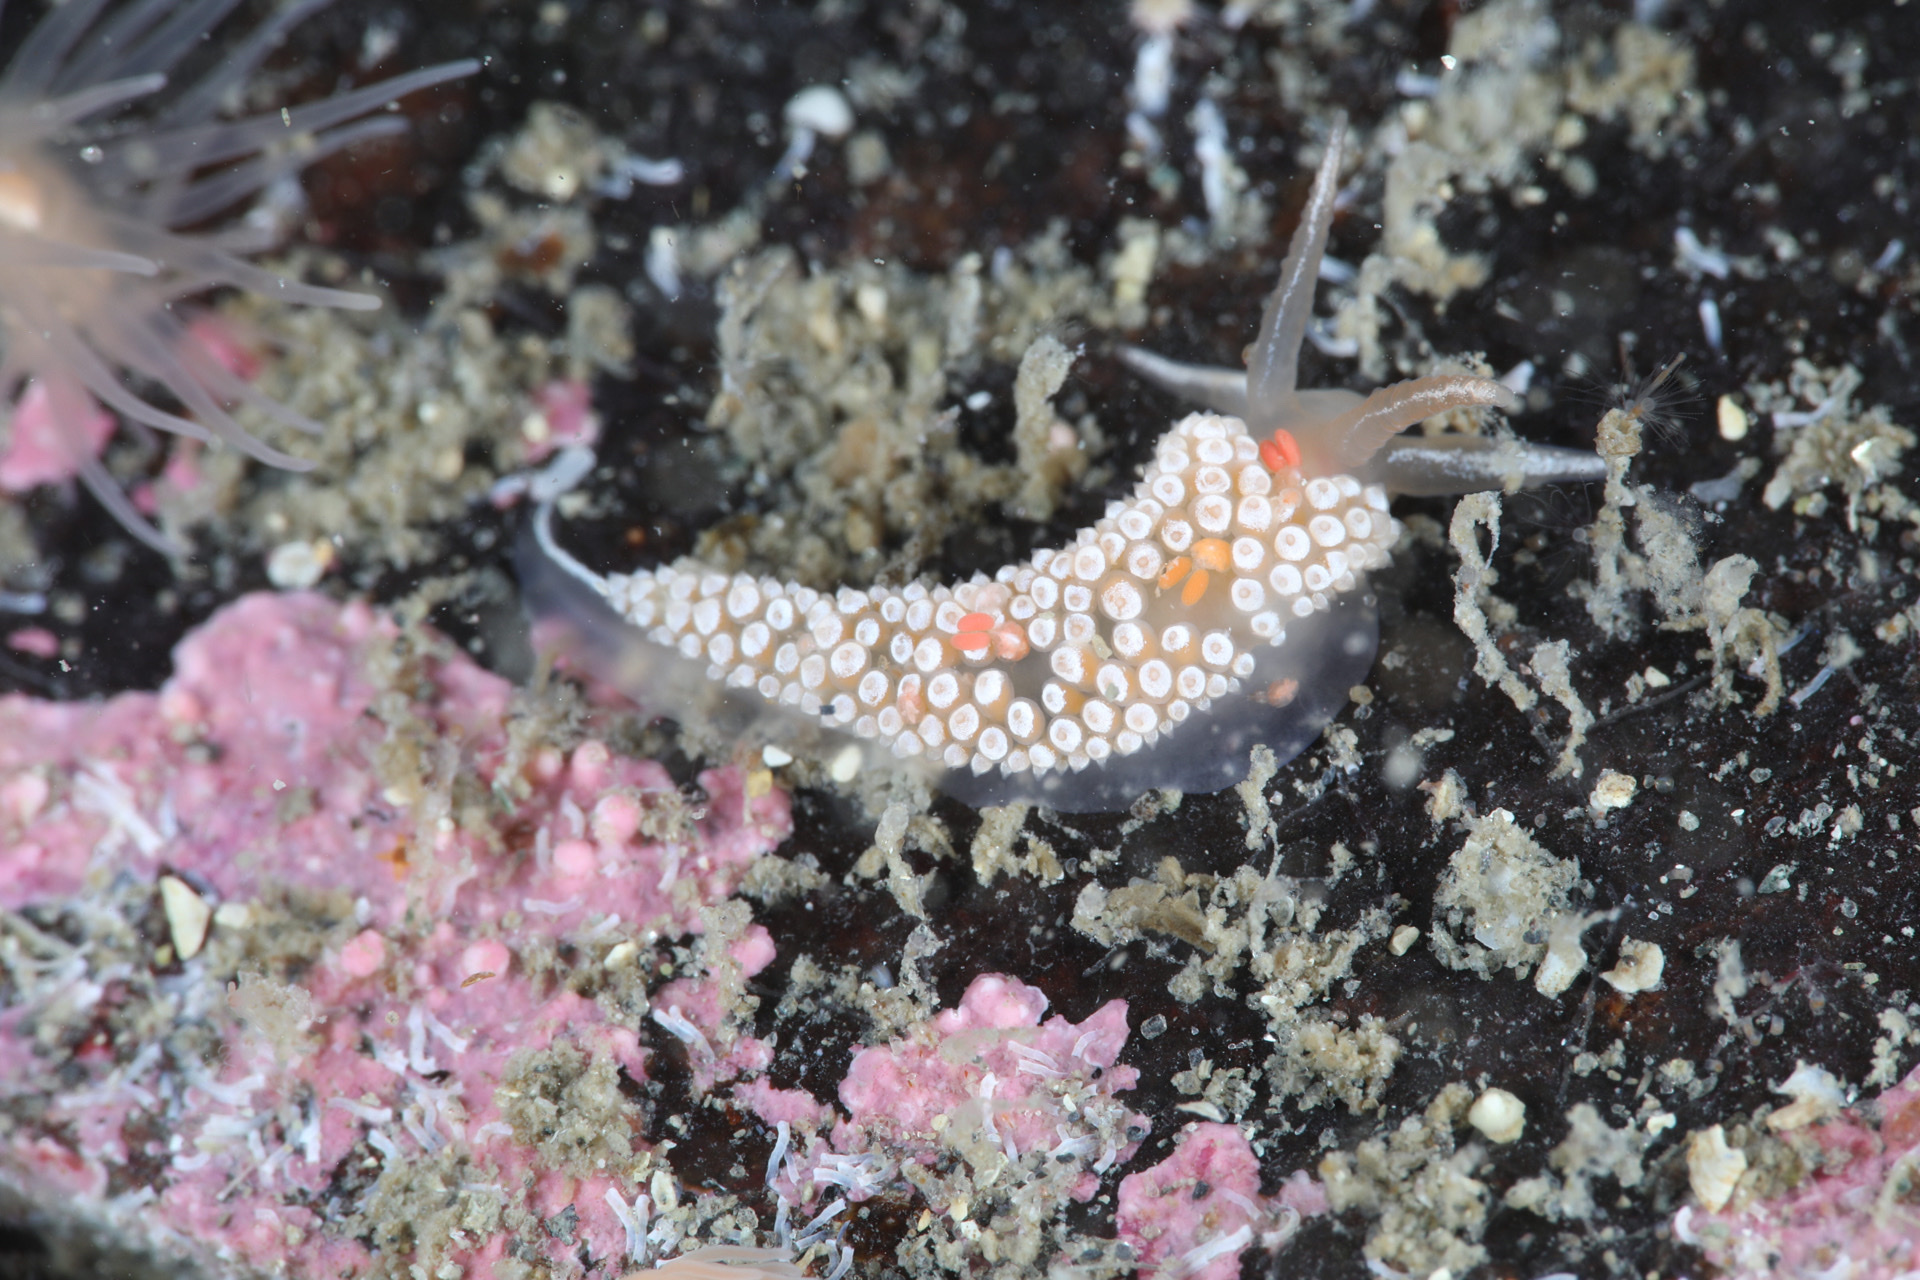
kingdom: Animalia
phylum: Mollusca
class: Gastropoda
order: Nudibranchia
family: Coryphellidae
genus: Coryphella
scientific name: Coryphella verrucosa
